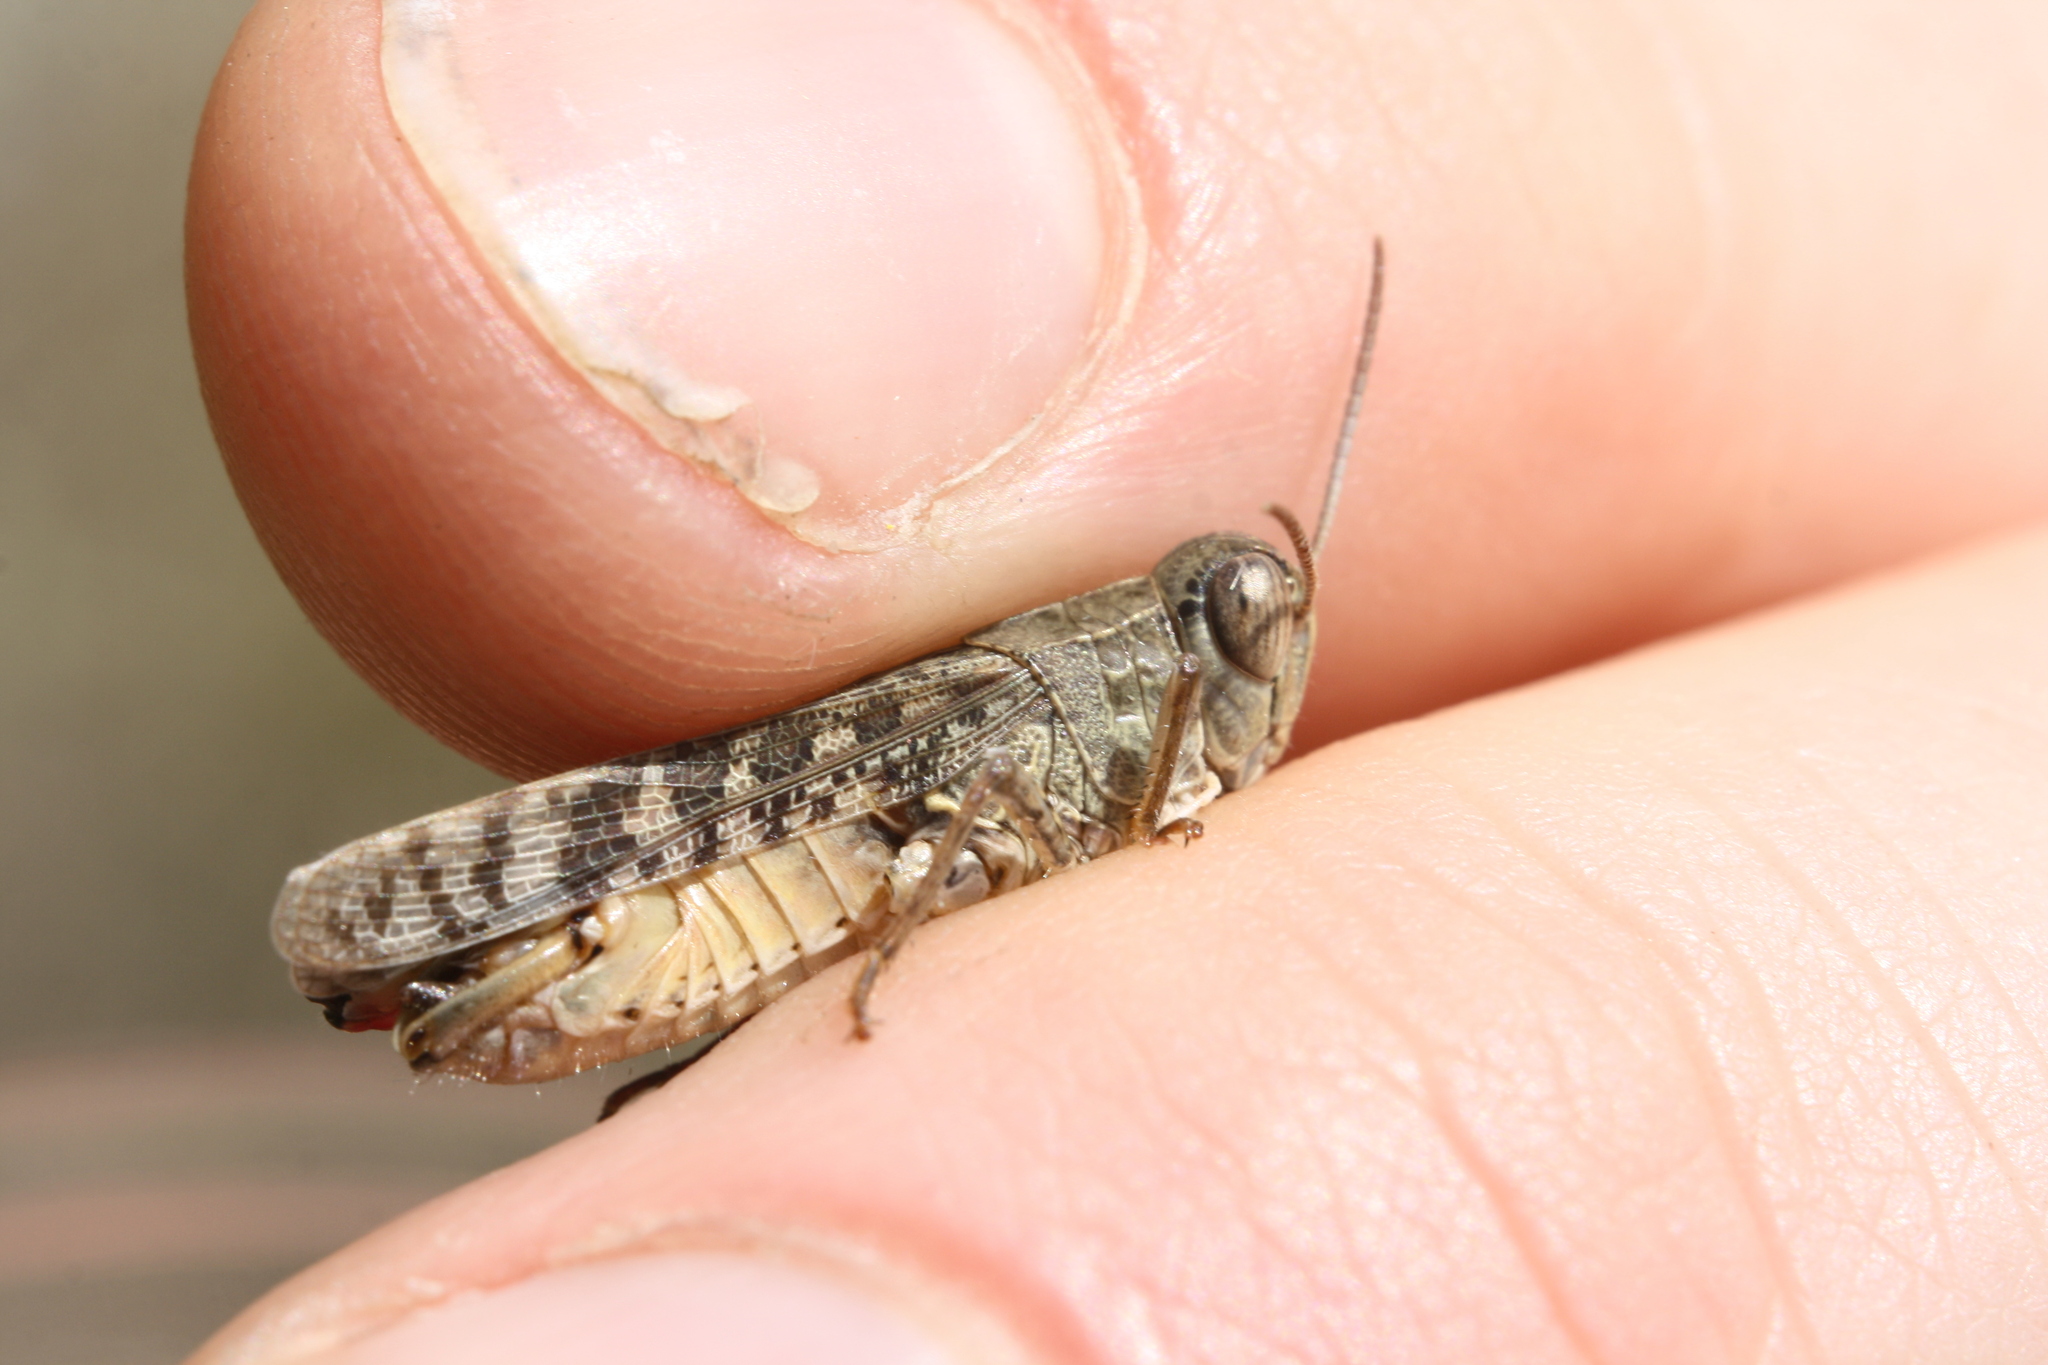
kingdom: Animalia
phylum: Arthropoda
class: Insecta
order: Orthoptera
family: Acrididae
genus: Calliptamus
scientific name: Calliptamus italicus
